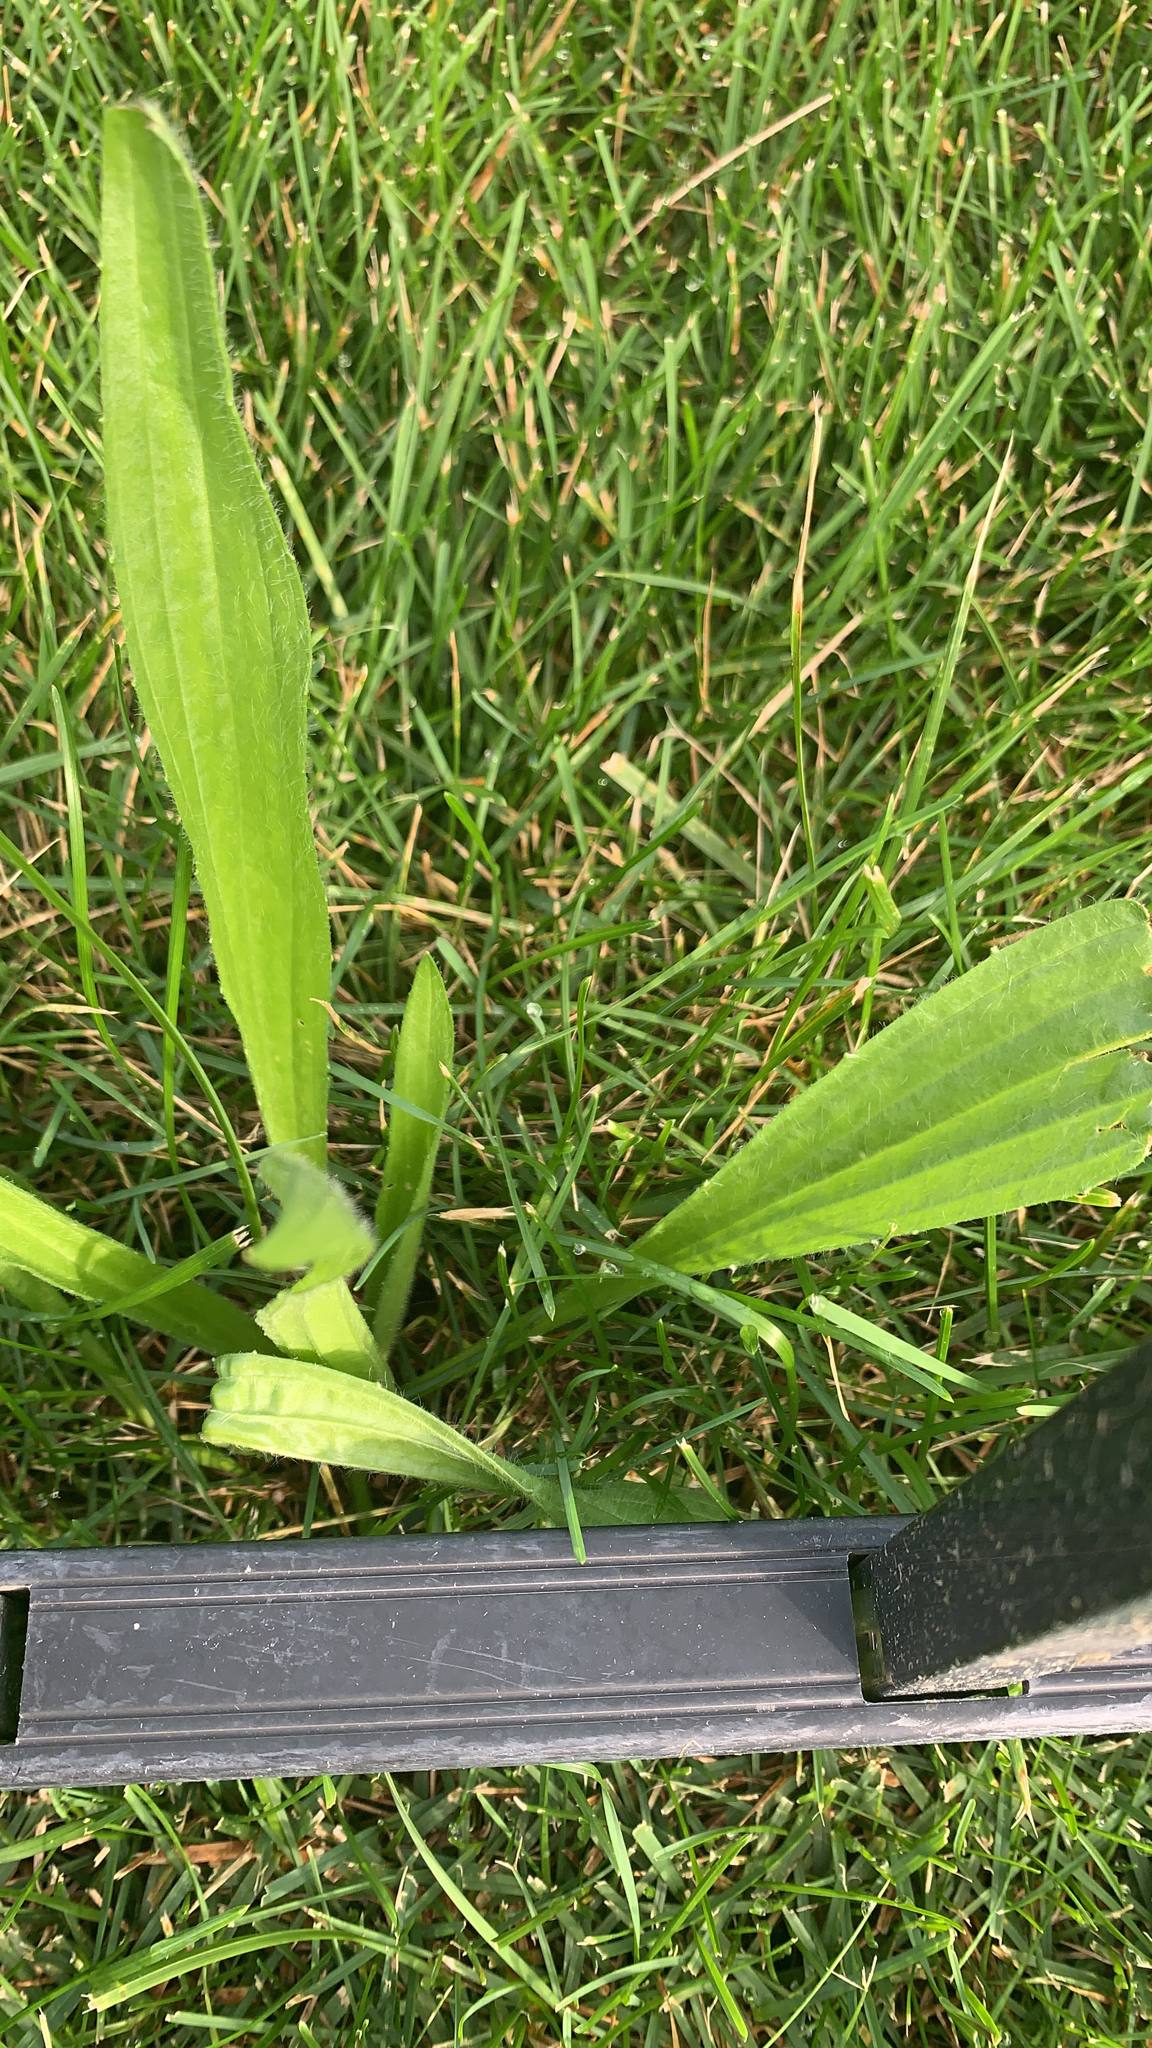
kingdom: Plantae
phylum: Tracheophyta
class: Magnoliopsida
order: Lamiales
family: Plantaginaceae
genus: Plantago
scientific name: Plantago lanceolata
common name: Ribwort plantain
